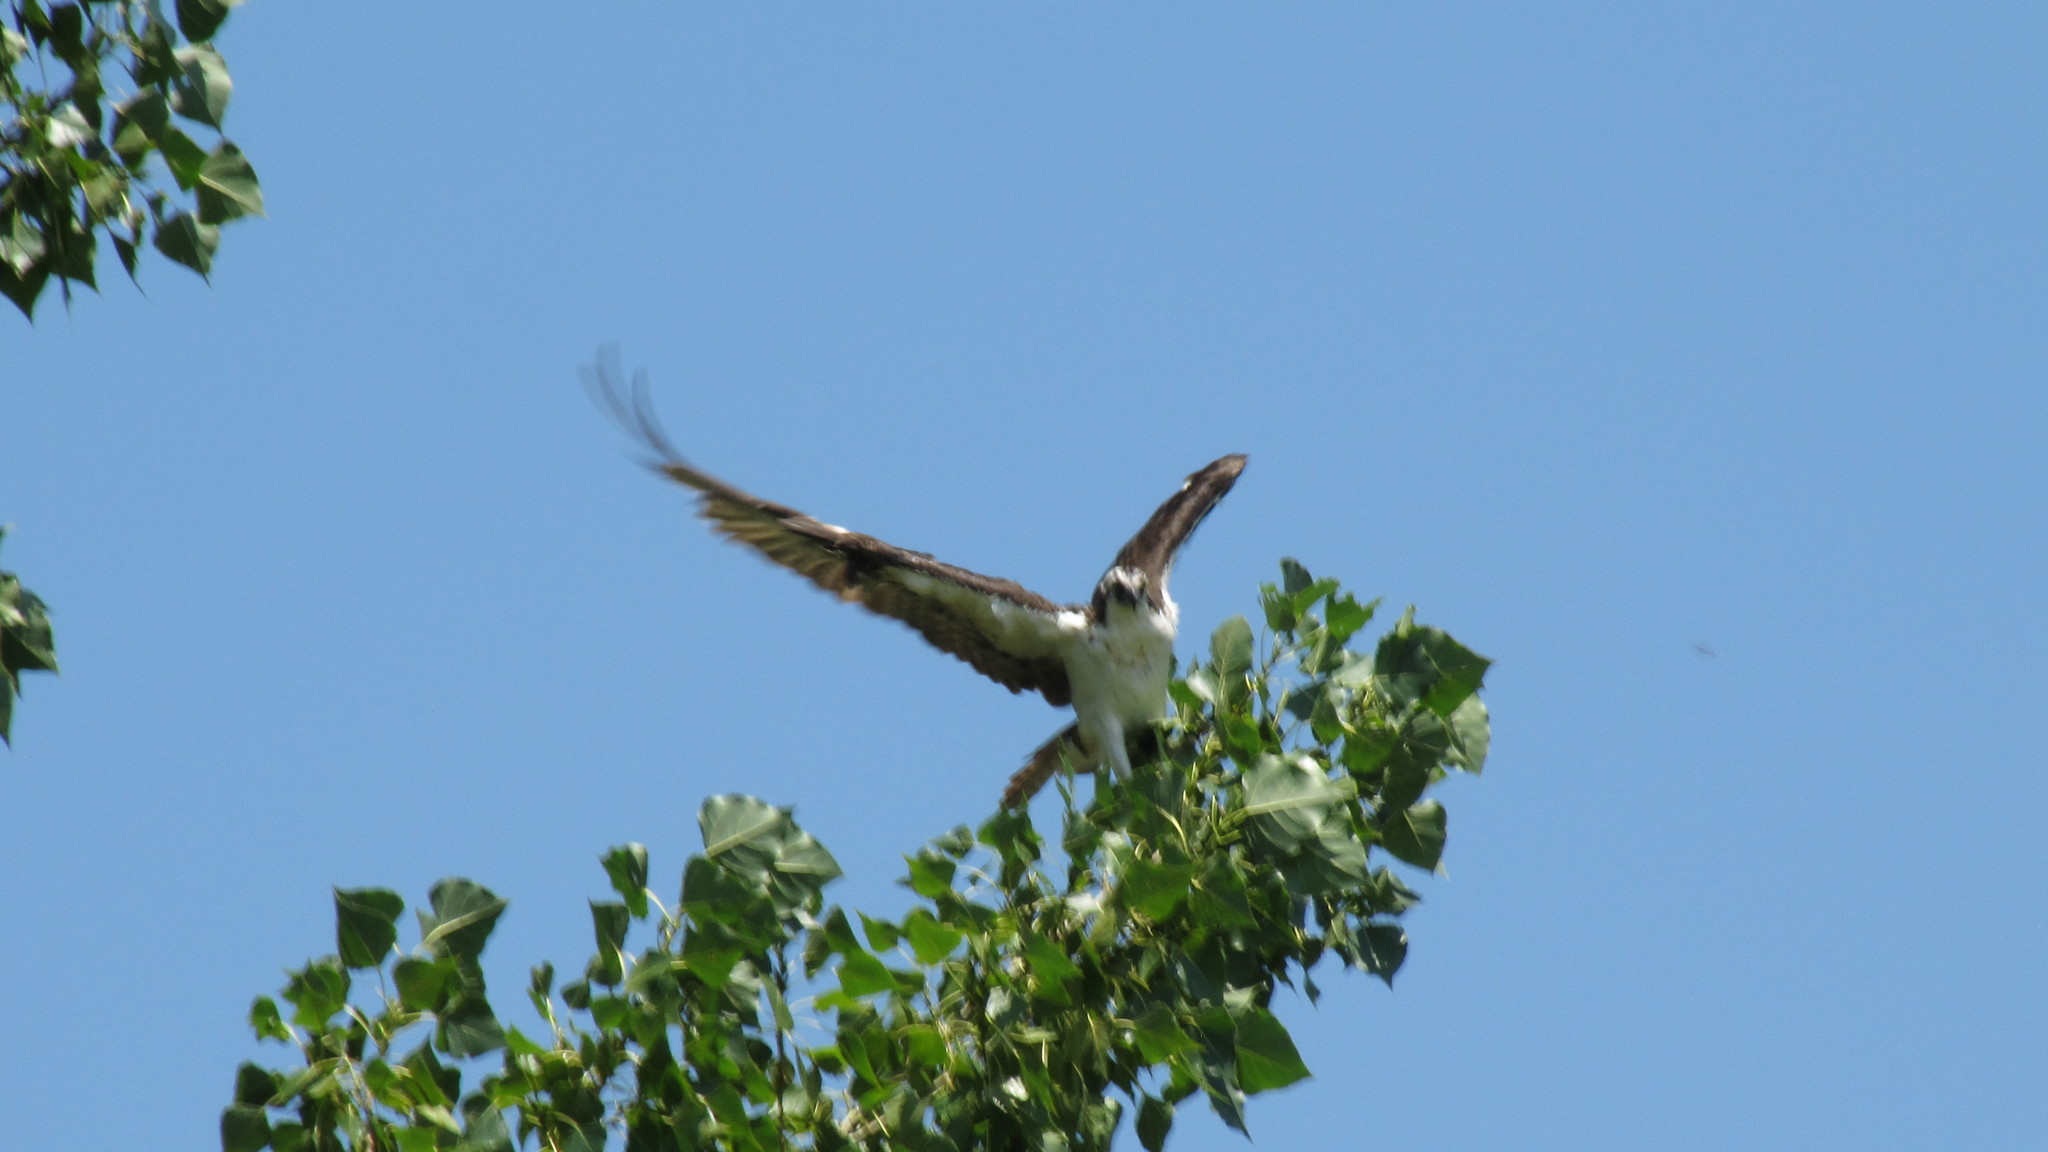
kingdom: Animalia
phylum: Chordata
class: Aves
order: Accipitriformes
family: Pandionidae
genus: Pandion
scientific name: Pandion haliaetus
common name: Osprey
